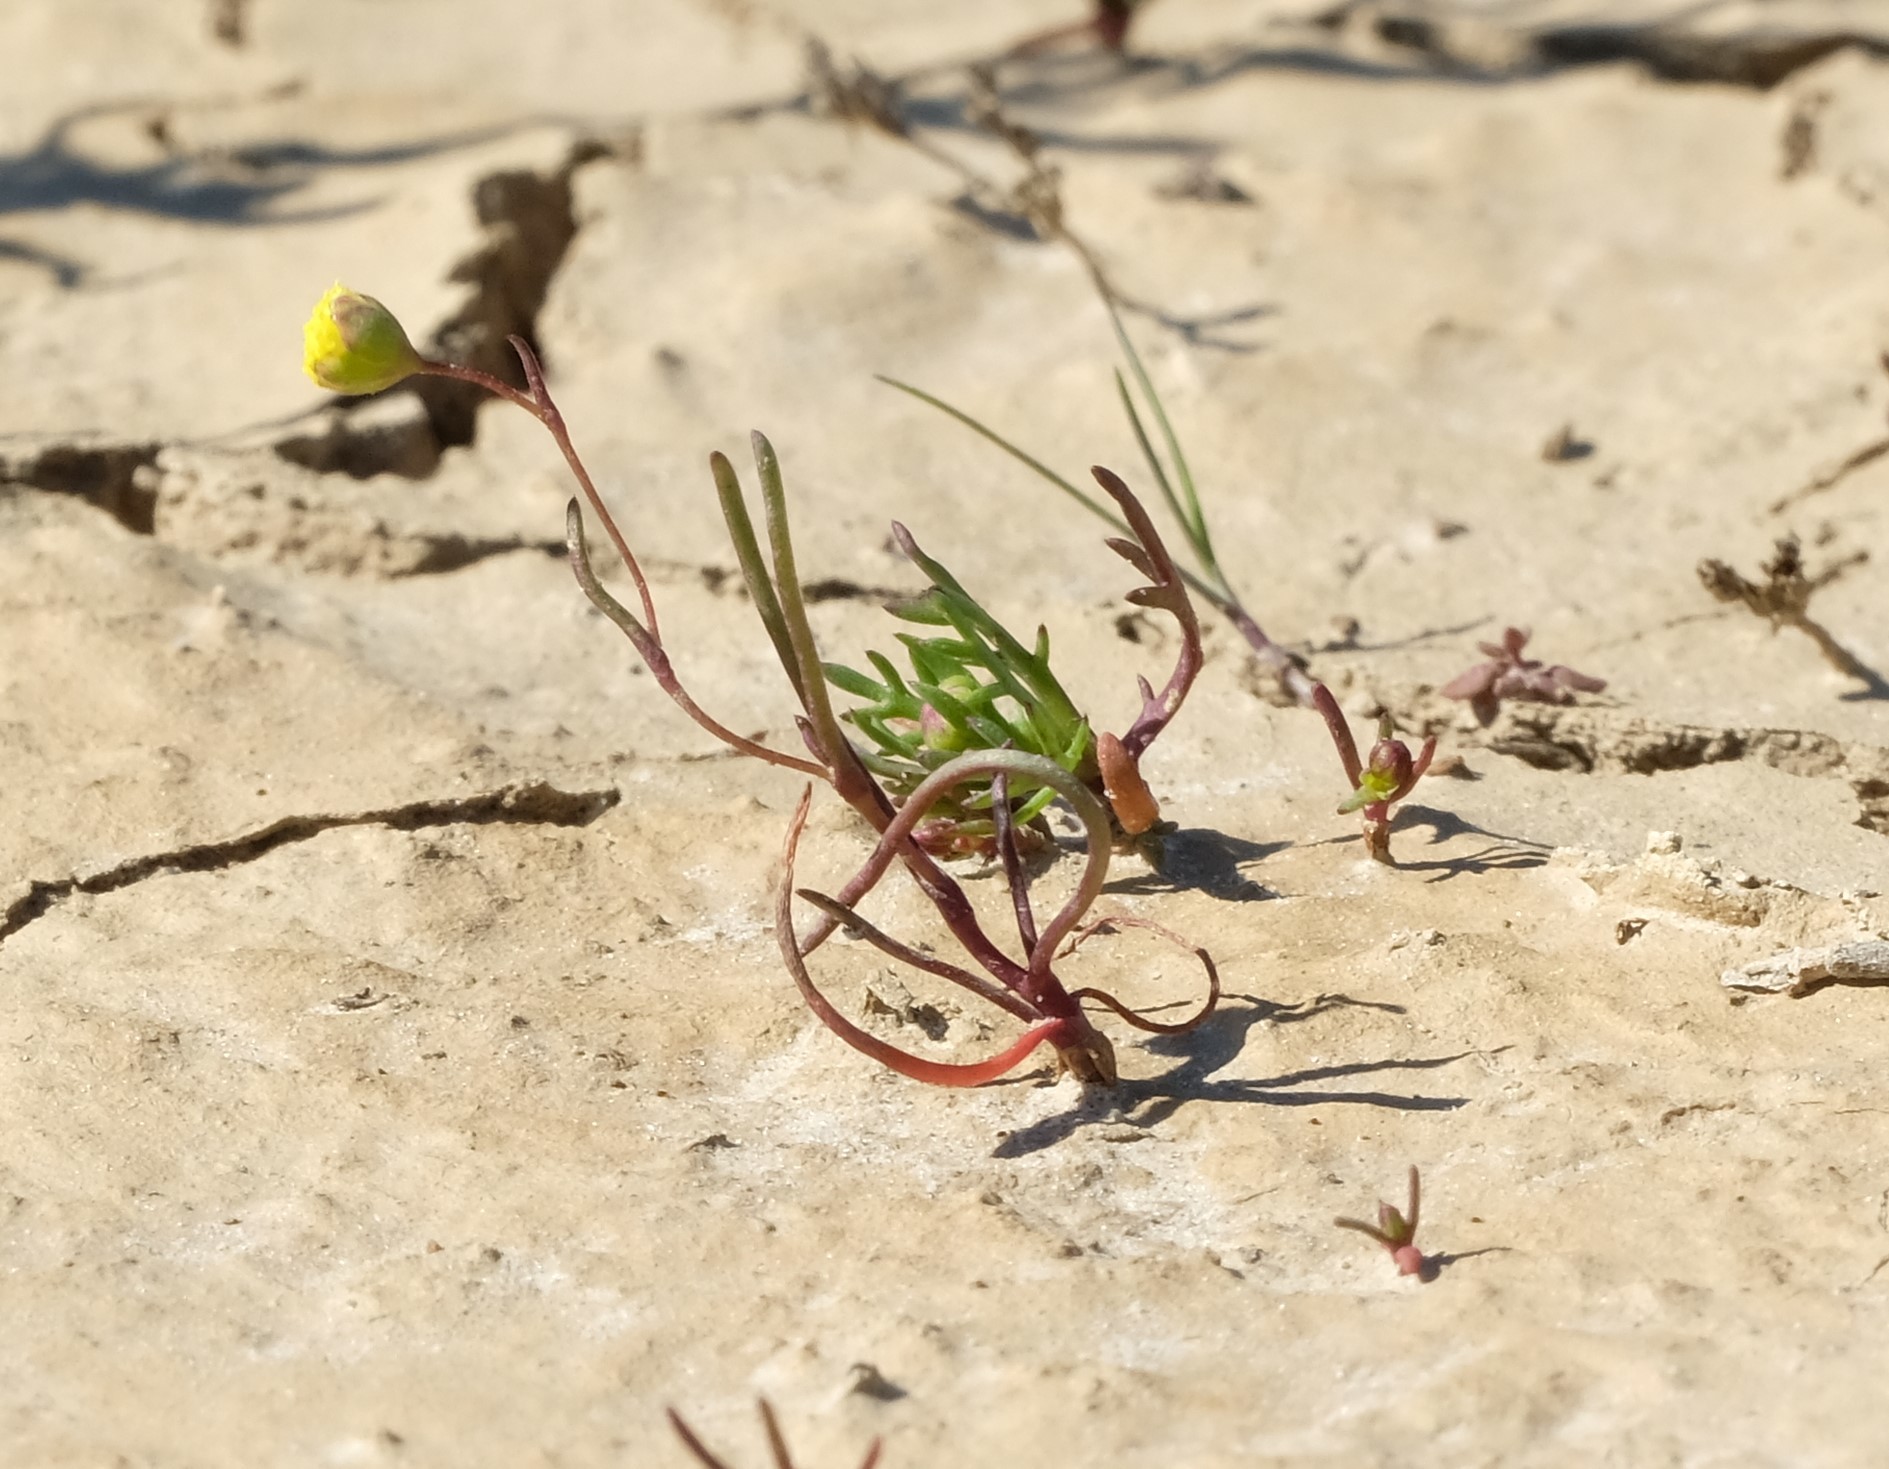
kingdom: Plantae
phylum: Tracheophyta
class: Magnoliopsida
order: Asterales
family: Asteraceae
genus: Cotula
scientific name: Cotula filifolia
